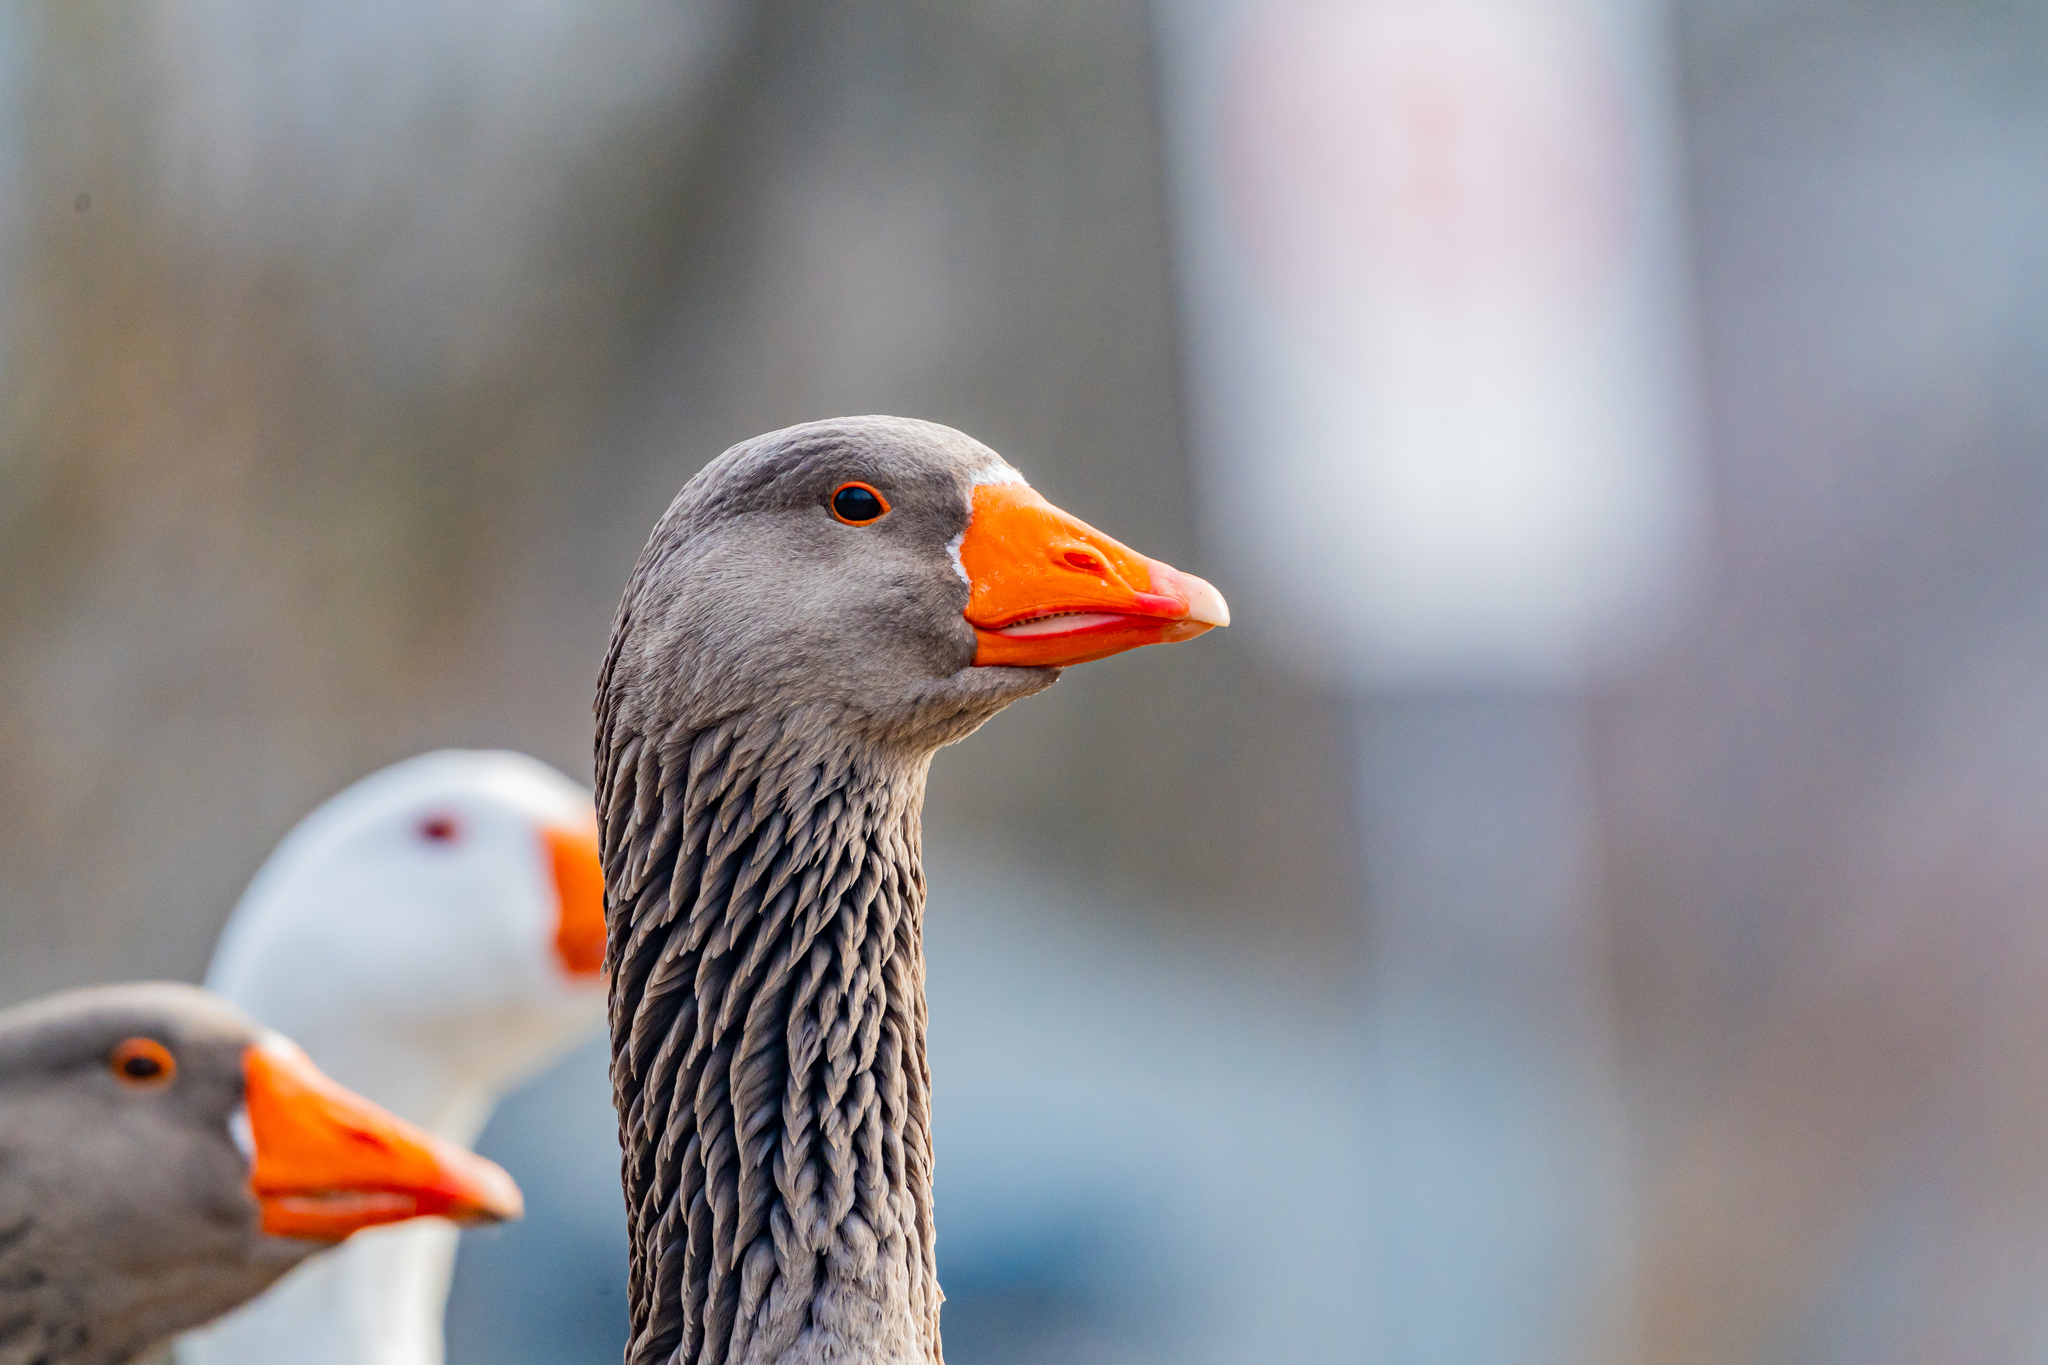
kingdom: Animalia
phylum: Chordata
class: Aves
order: Anseriformes
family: Anatidae
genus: Anser
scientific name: Anser anser
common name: Greylag goose
